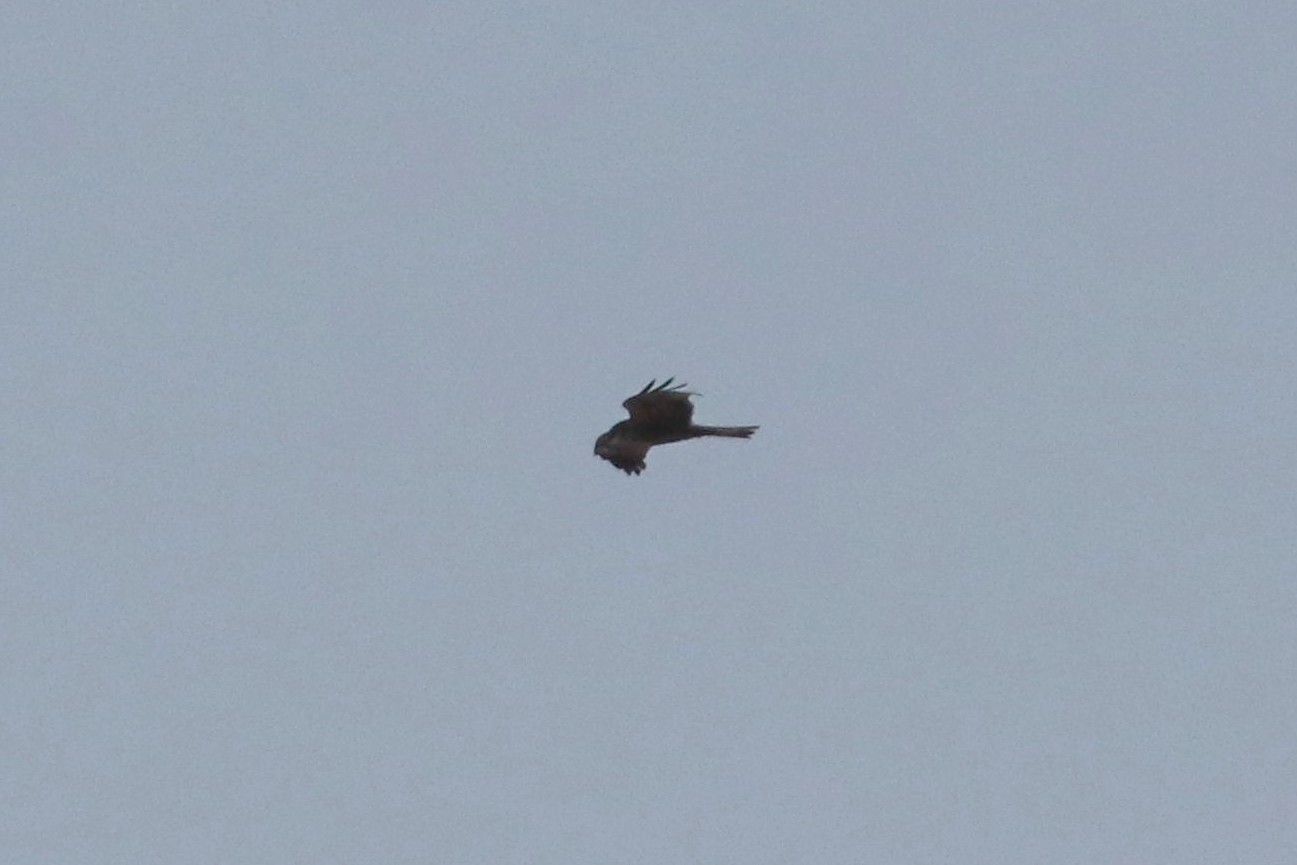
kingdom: Animalia
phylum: Chordata
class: Aves
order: Accipitriformes
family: Accipitridae
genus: Milvus
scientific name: Milvus migrans
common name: Black kite
